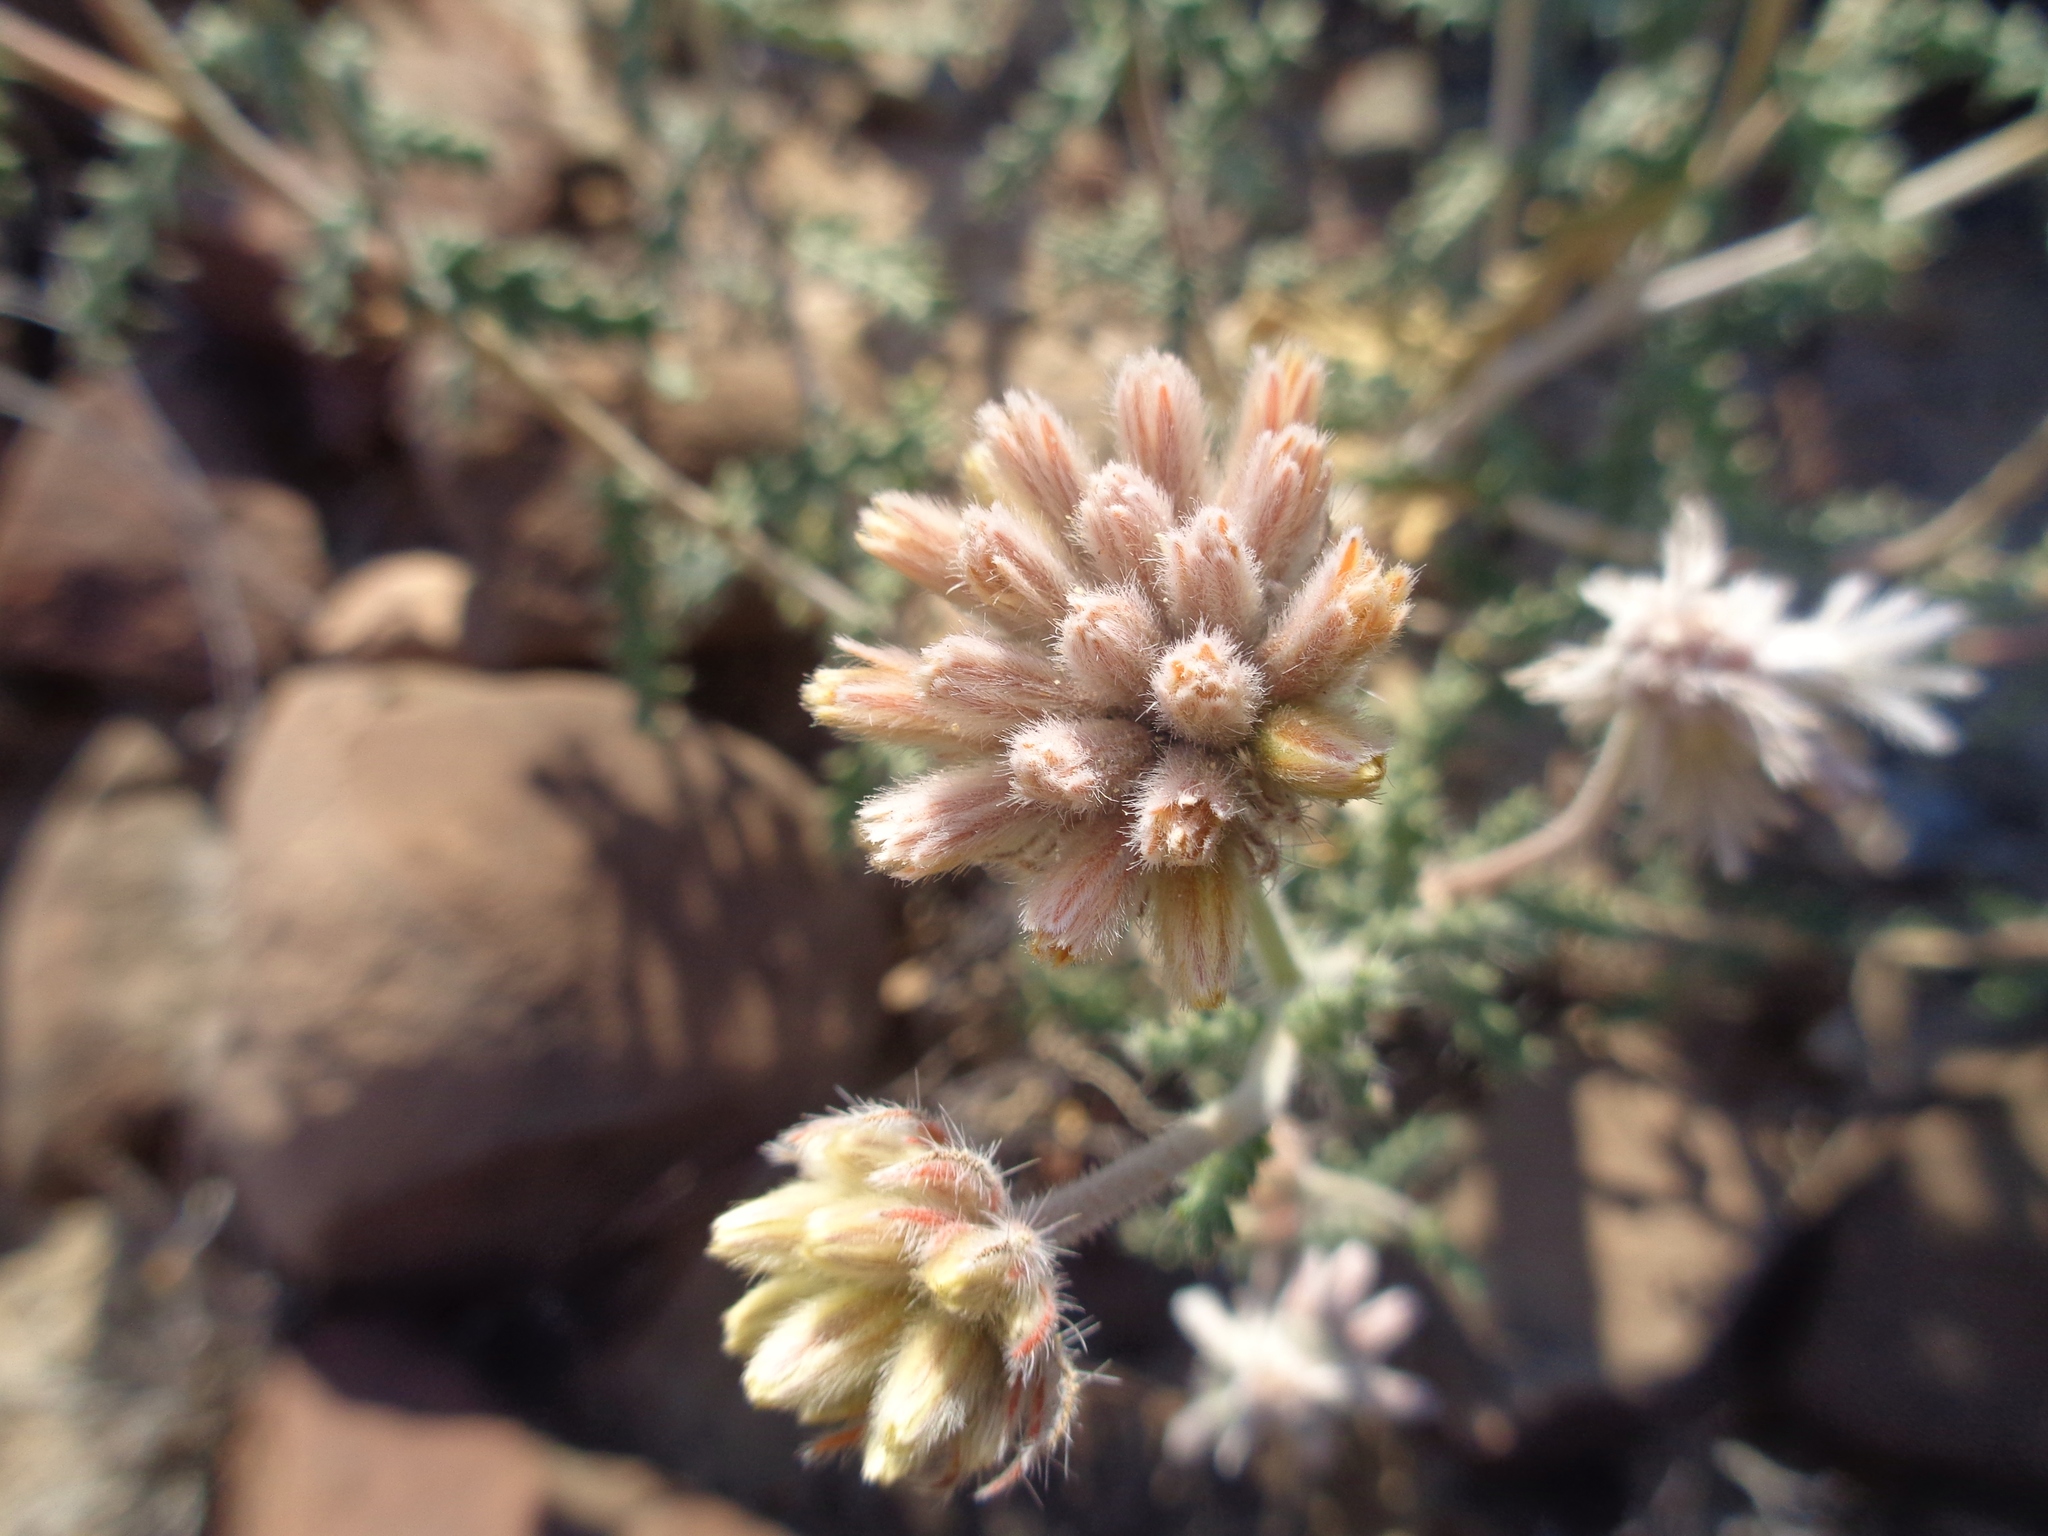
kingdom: Plantae
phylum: Tracheophyta
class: Magnoliopsida
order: Cornales
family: Loasaceae
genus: Cevallia
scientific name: Cevallia sinuata
